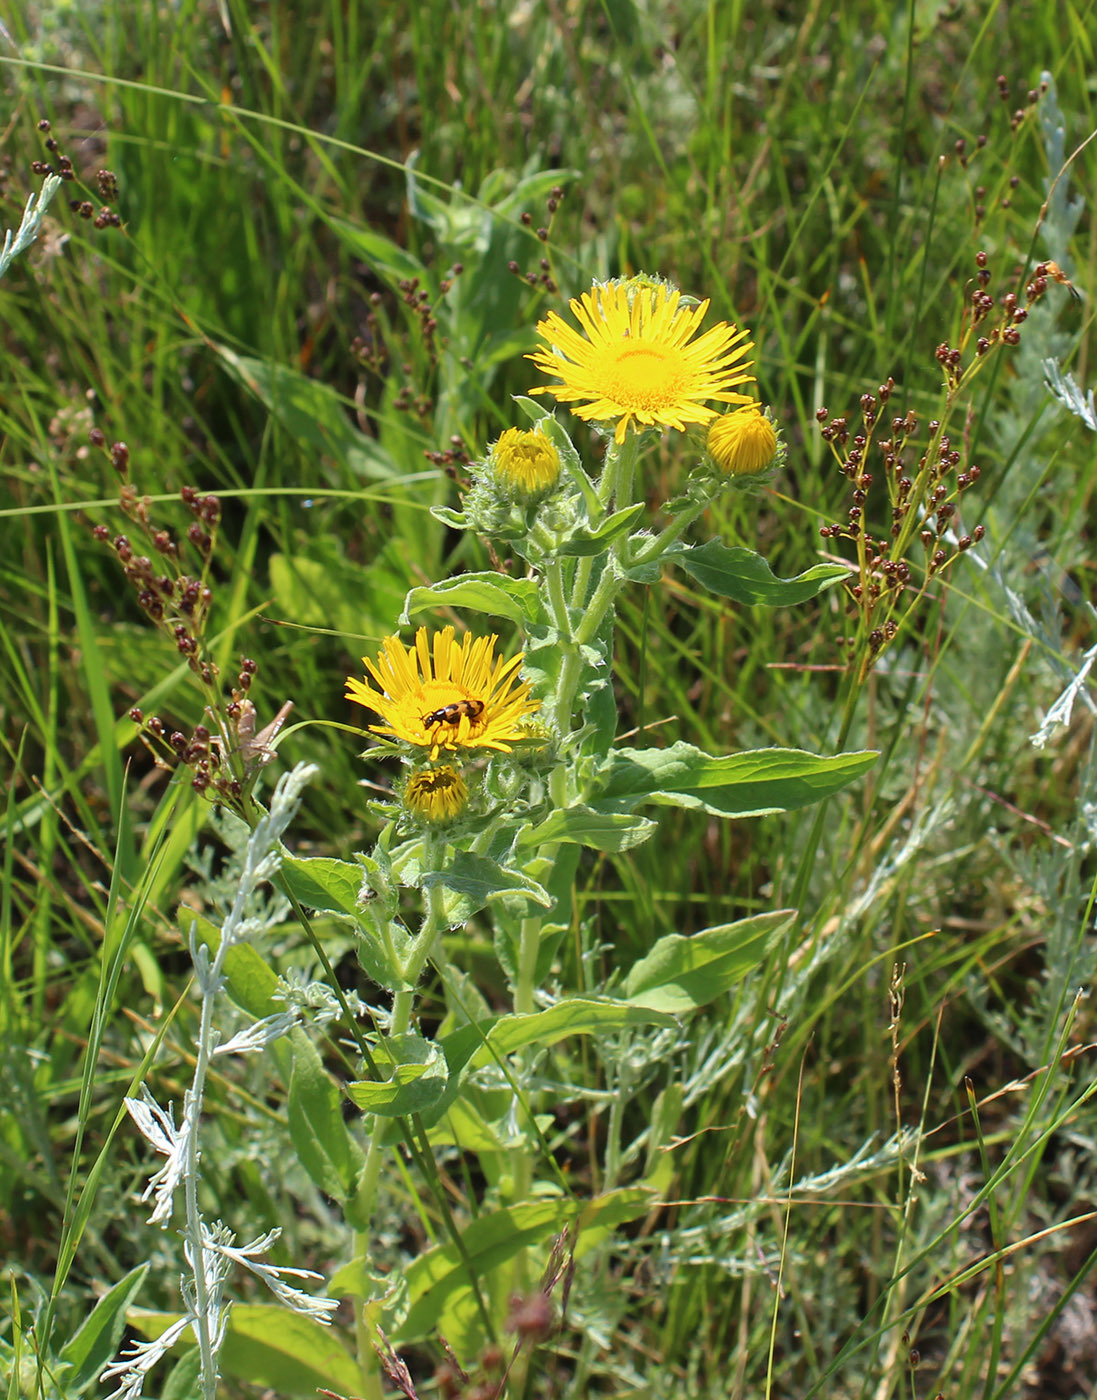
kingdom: Plantae
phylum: Tracheophyta
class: Magnoliopsida
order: Asterales
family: Asteraceae
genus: Pentanema
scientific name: Pentanema britannicum
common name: British elecampane
